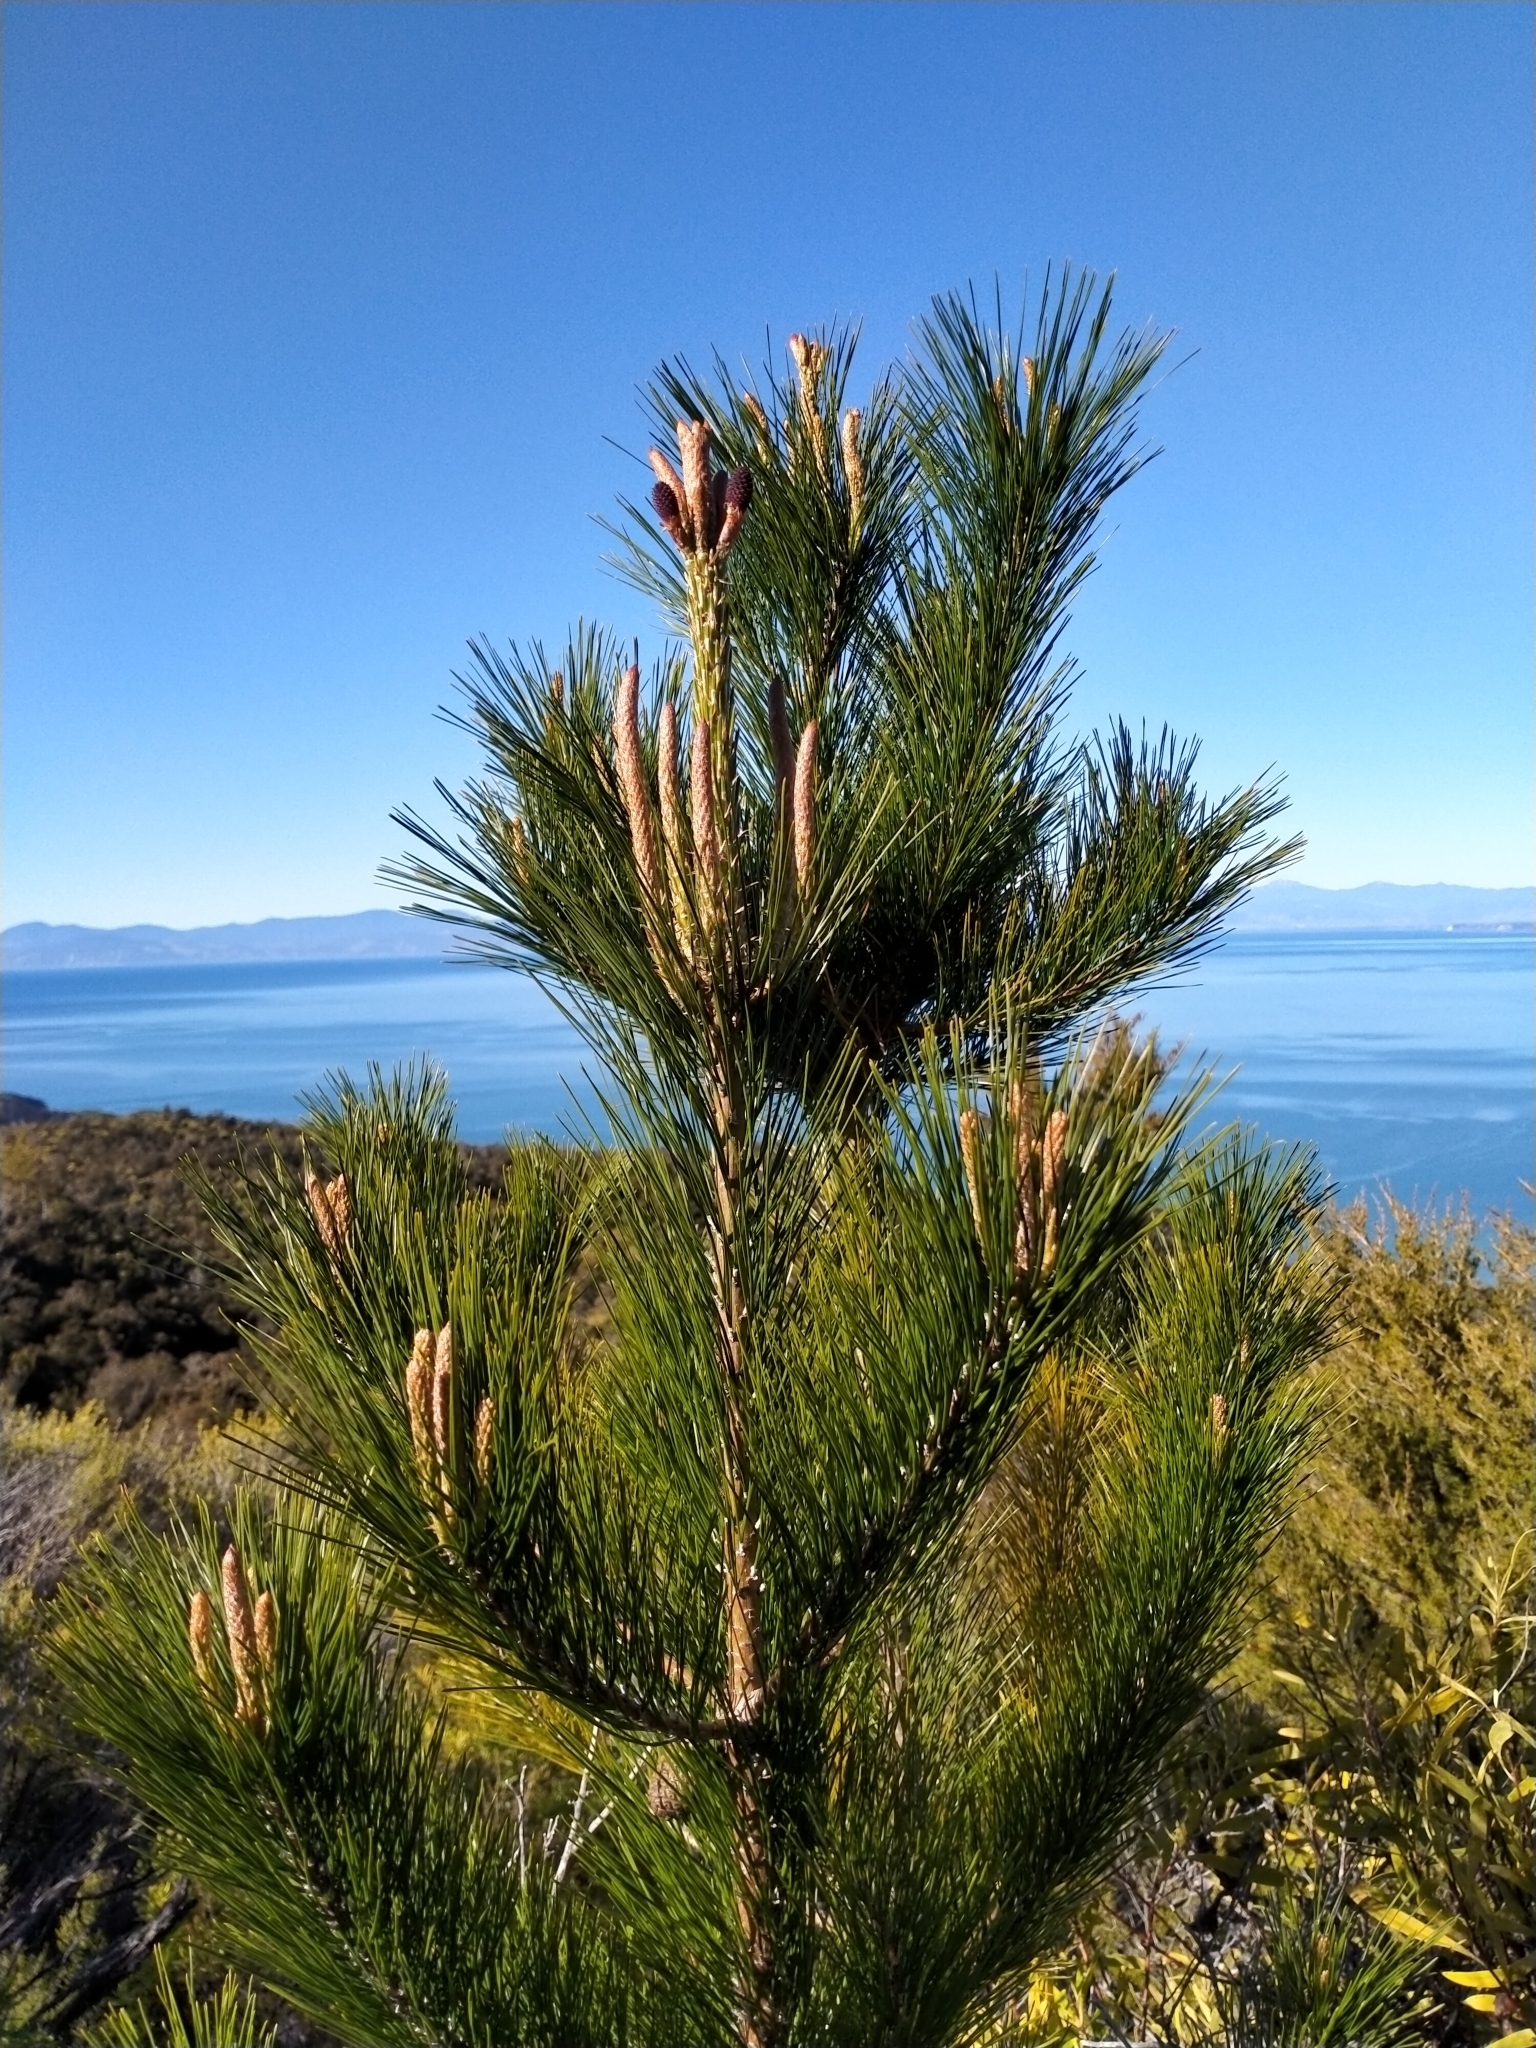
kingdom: Plantae
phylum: Tracheophyta
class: Pinopsida
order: Pinales
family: Pinaceae
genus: Pinus
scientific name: Pinus radiata
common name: Monterey pine
